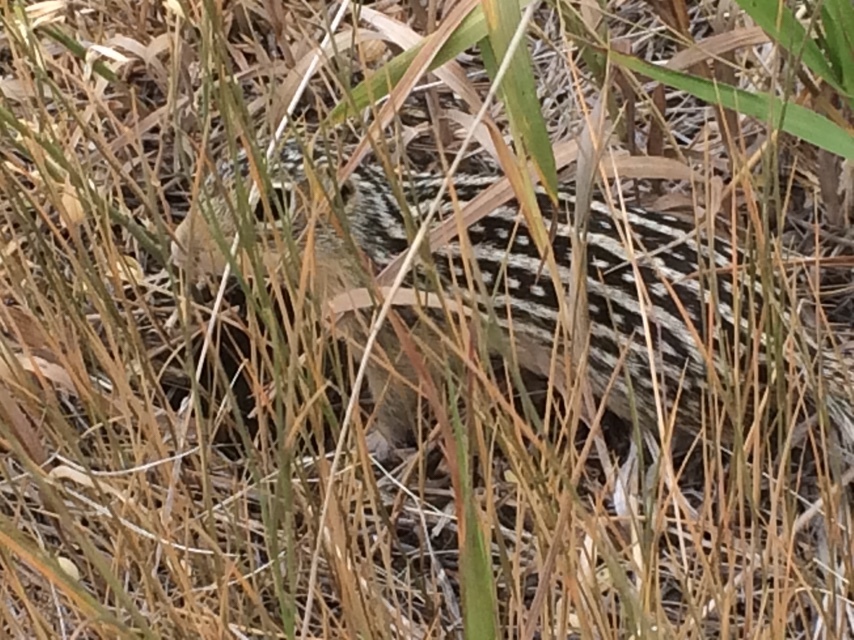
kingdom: Animalia
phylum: Chordata
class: Mammalia
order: Rodentia
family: Sciuridae
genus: Ictidomys
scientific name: Ictidomys tridecemlineatus
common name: Thirteen-lined ground squirrel
